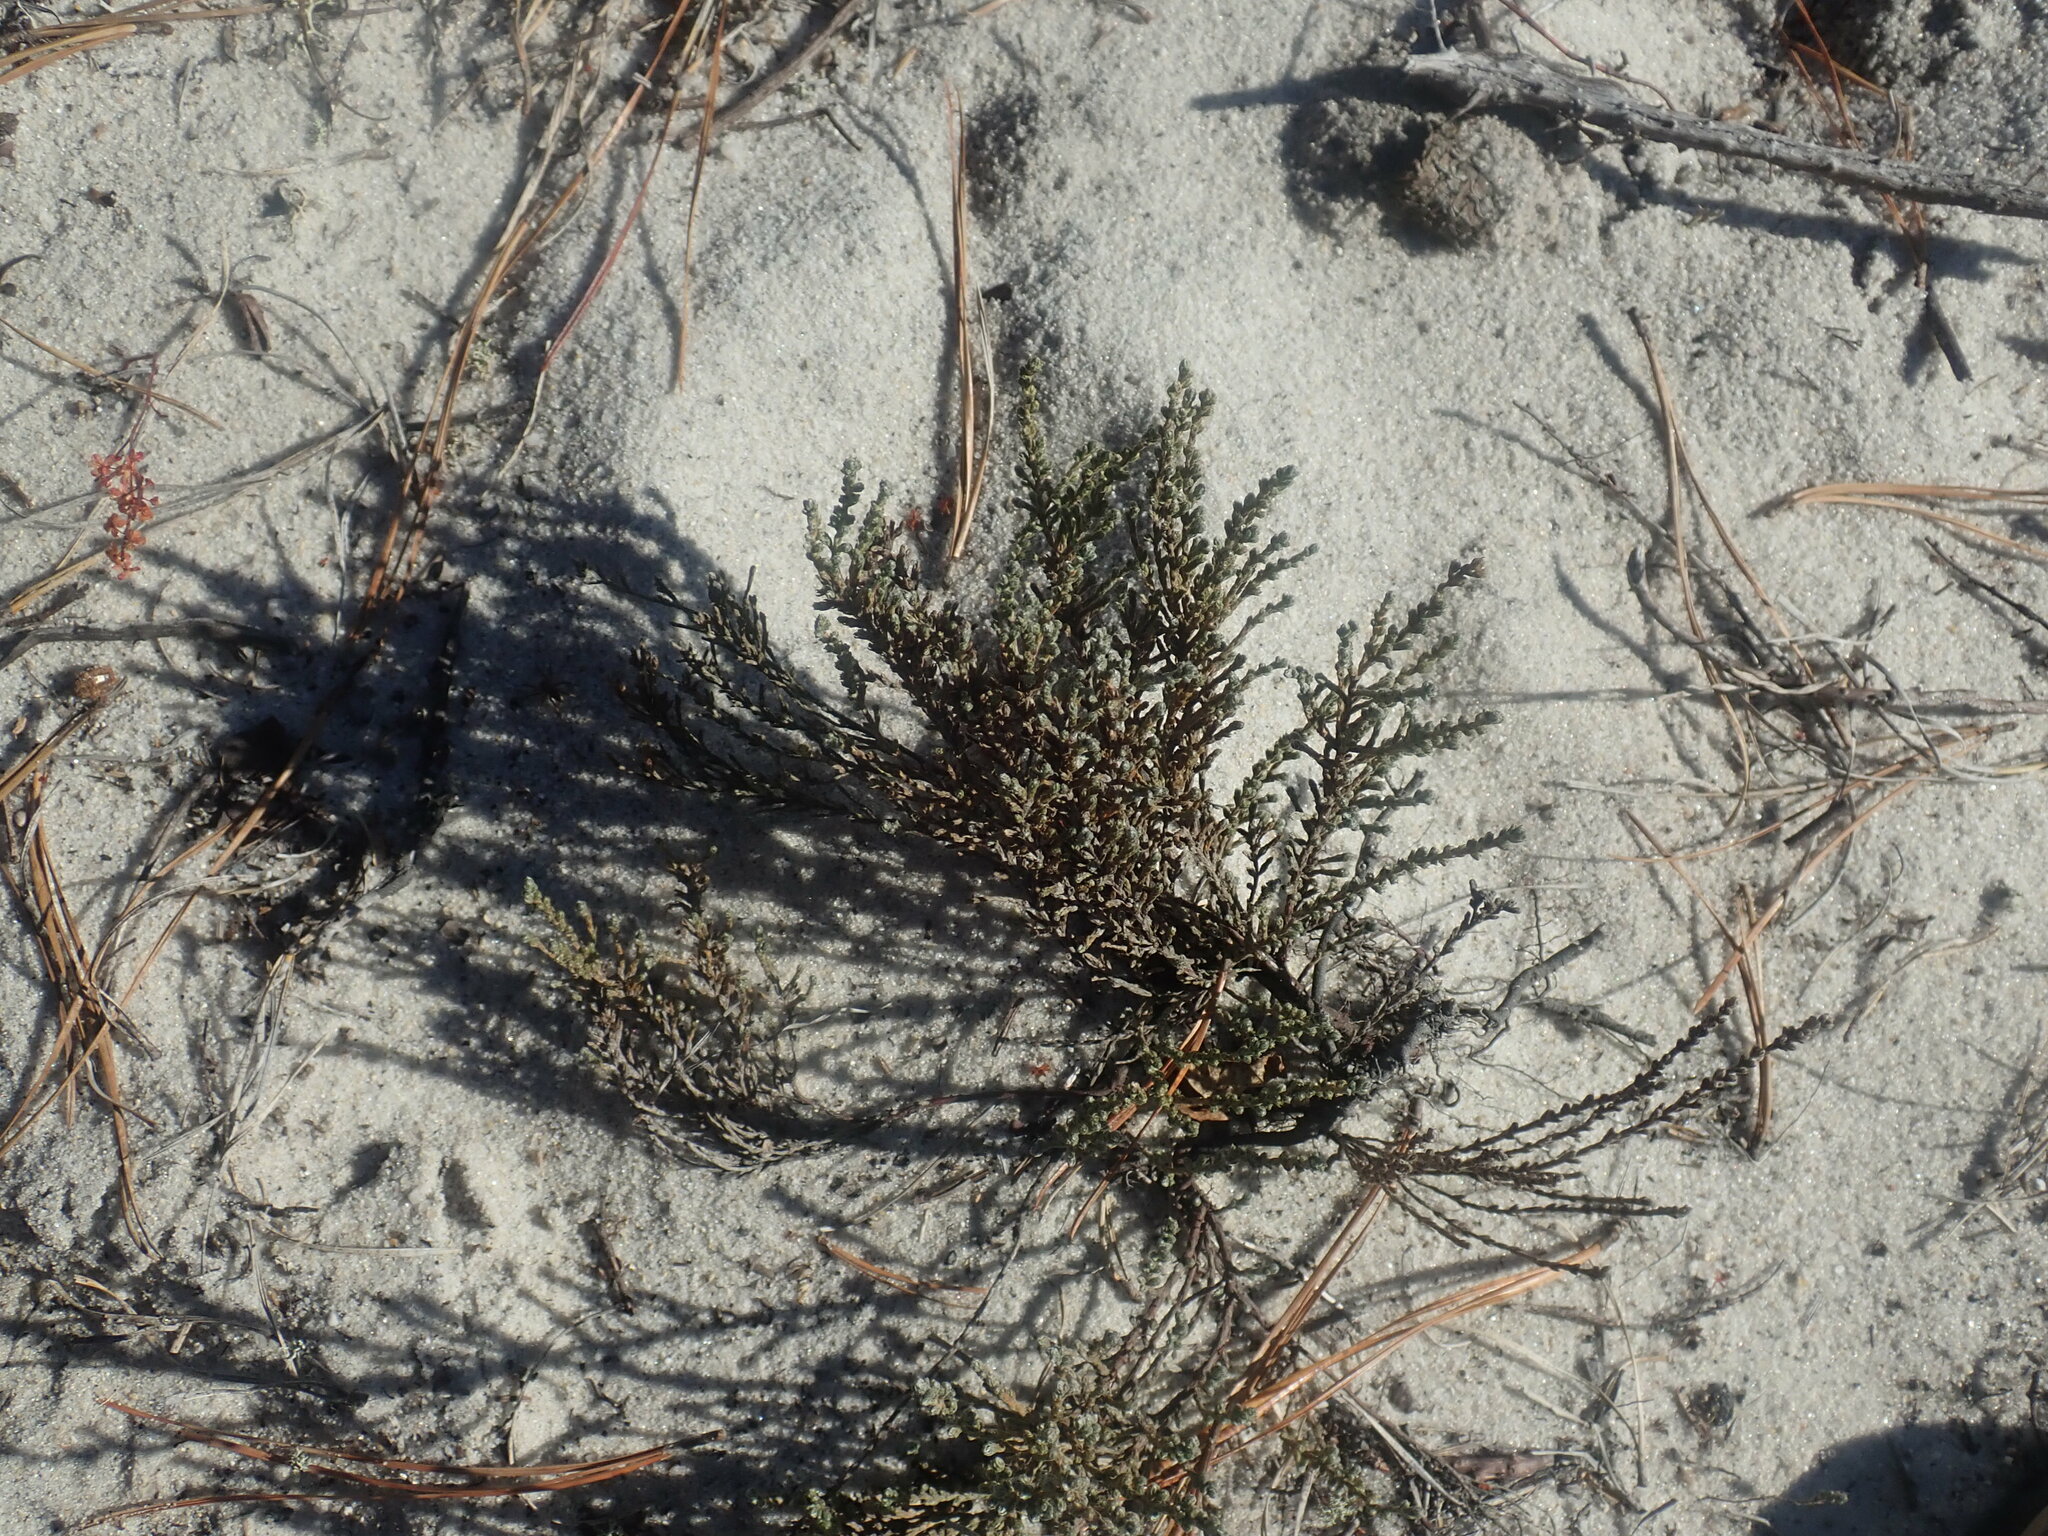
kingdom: Plantae
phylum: Tracheophyta
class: Magnoliopsida
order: Malvales
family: Cistaceae
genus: Hudsonia
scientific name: Hudsonia tomentosa
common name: Beach-heath
